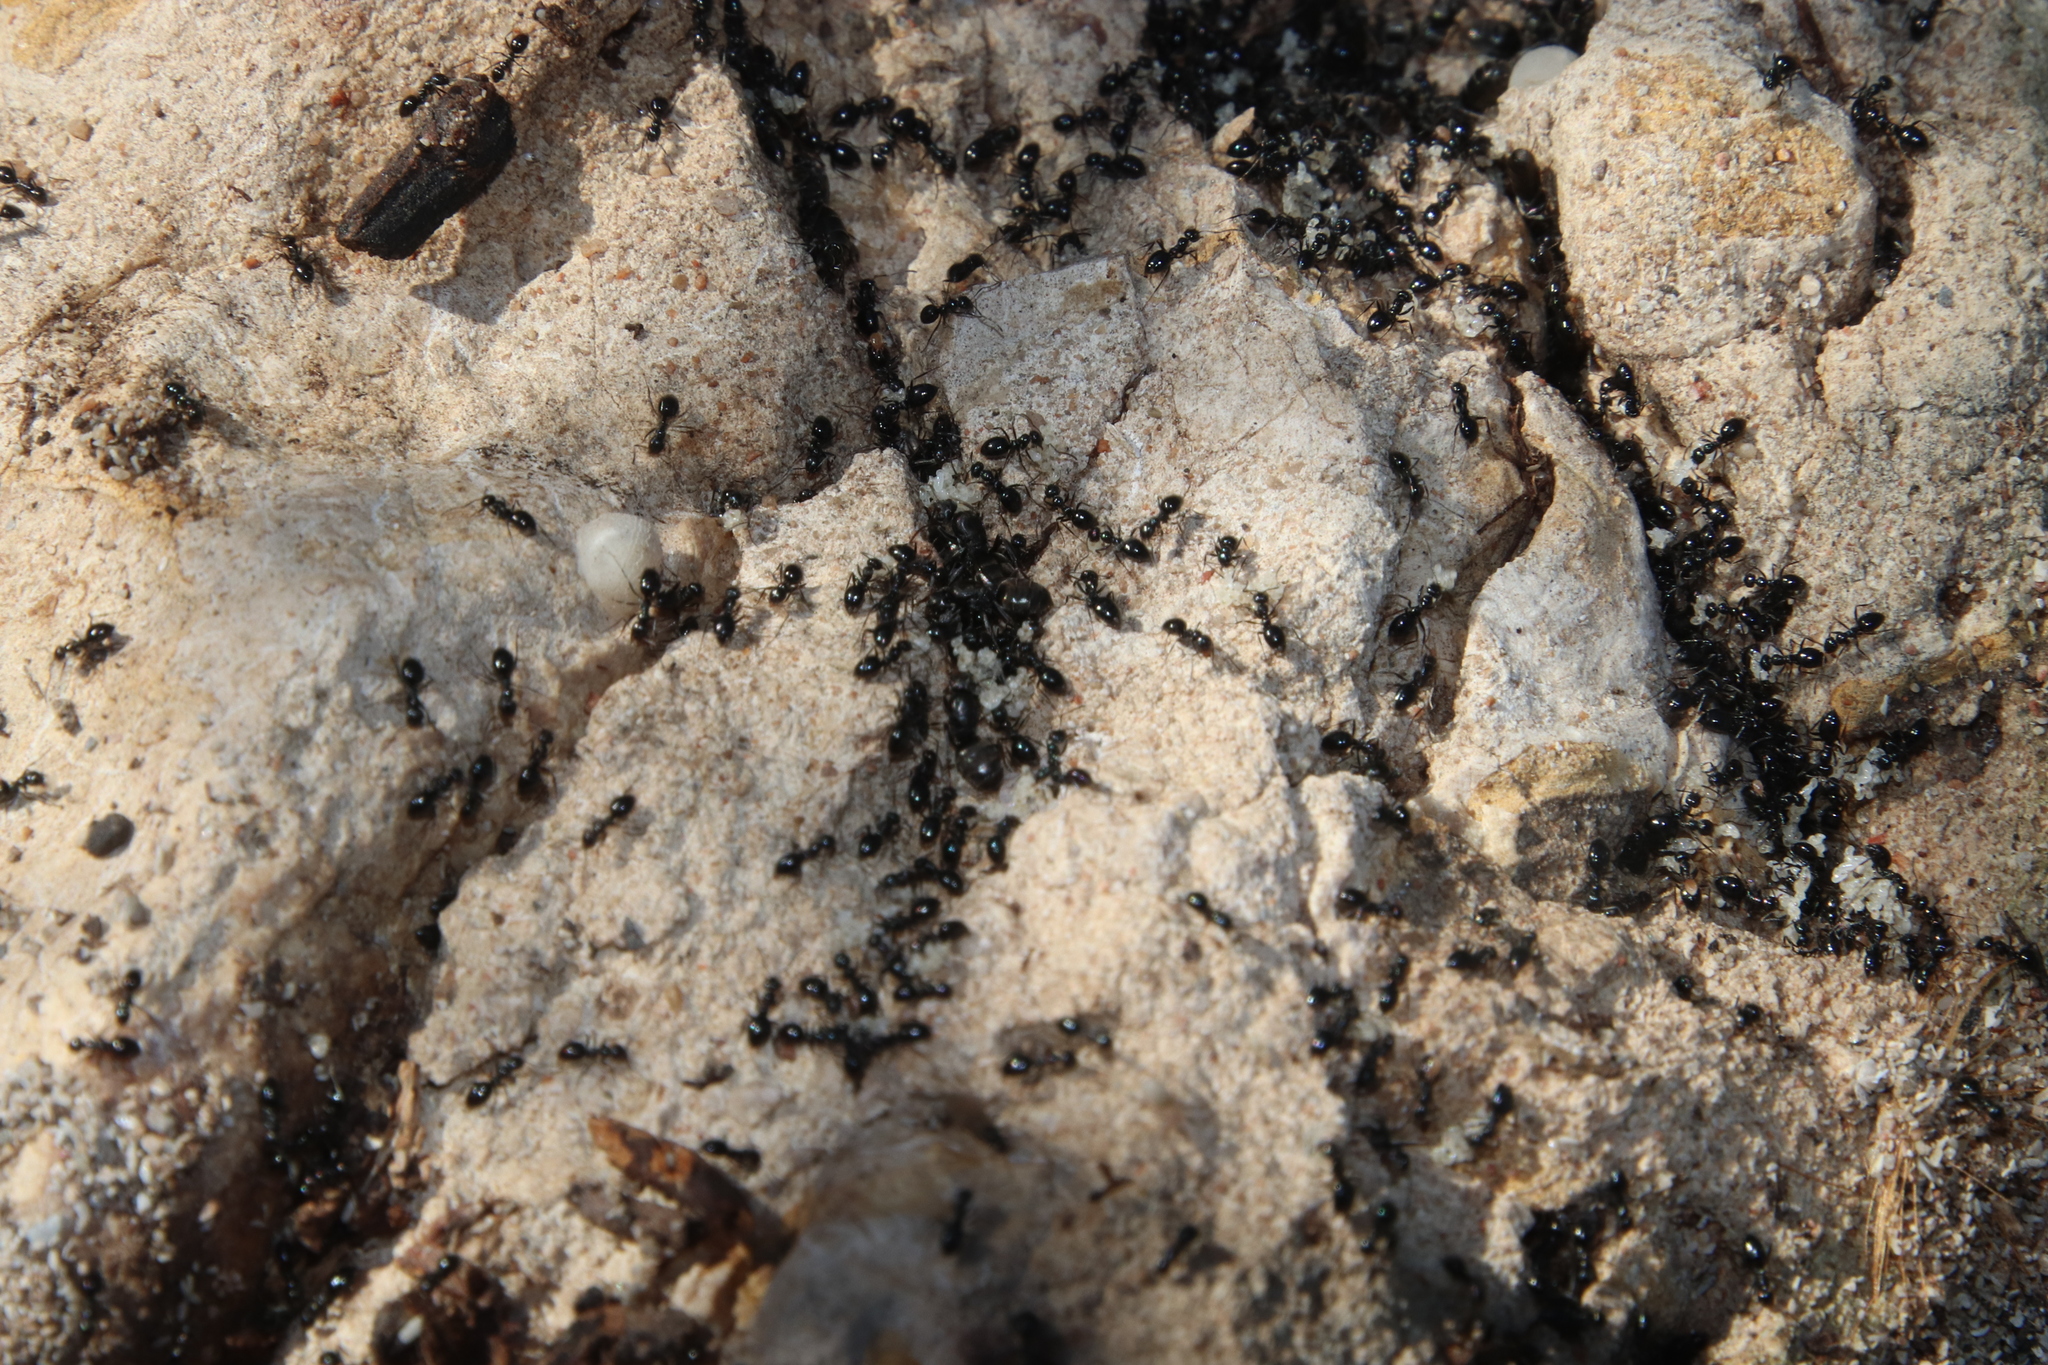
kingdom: Animalia
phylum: Arthropoda
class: Insecta
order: Hymenoptera
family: Formicidae
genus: Lepisiota
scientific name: Lepisiota capensis
